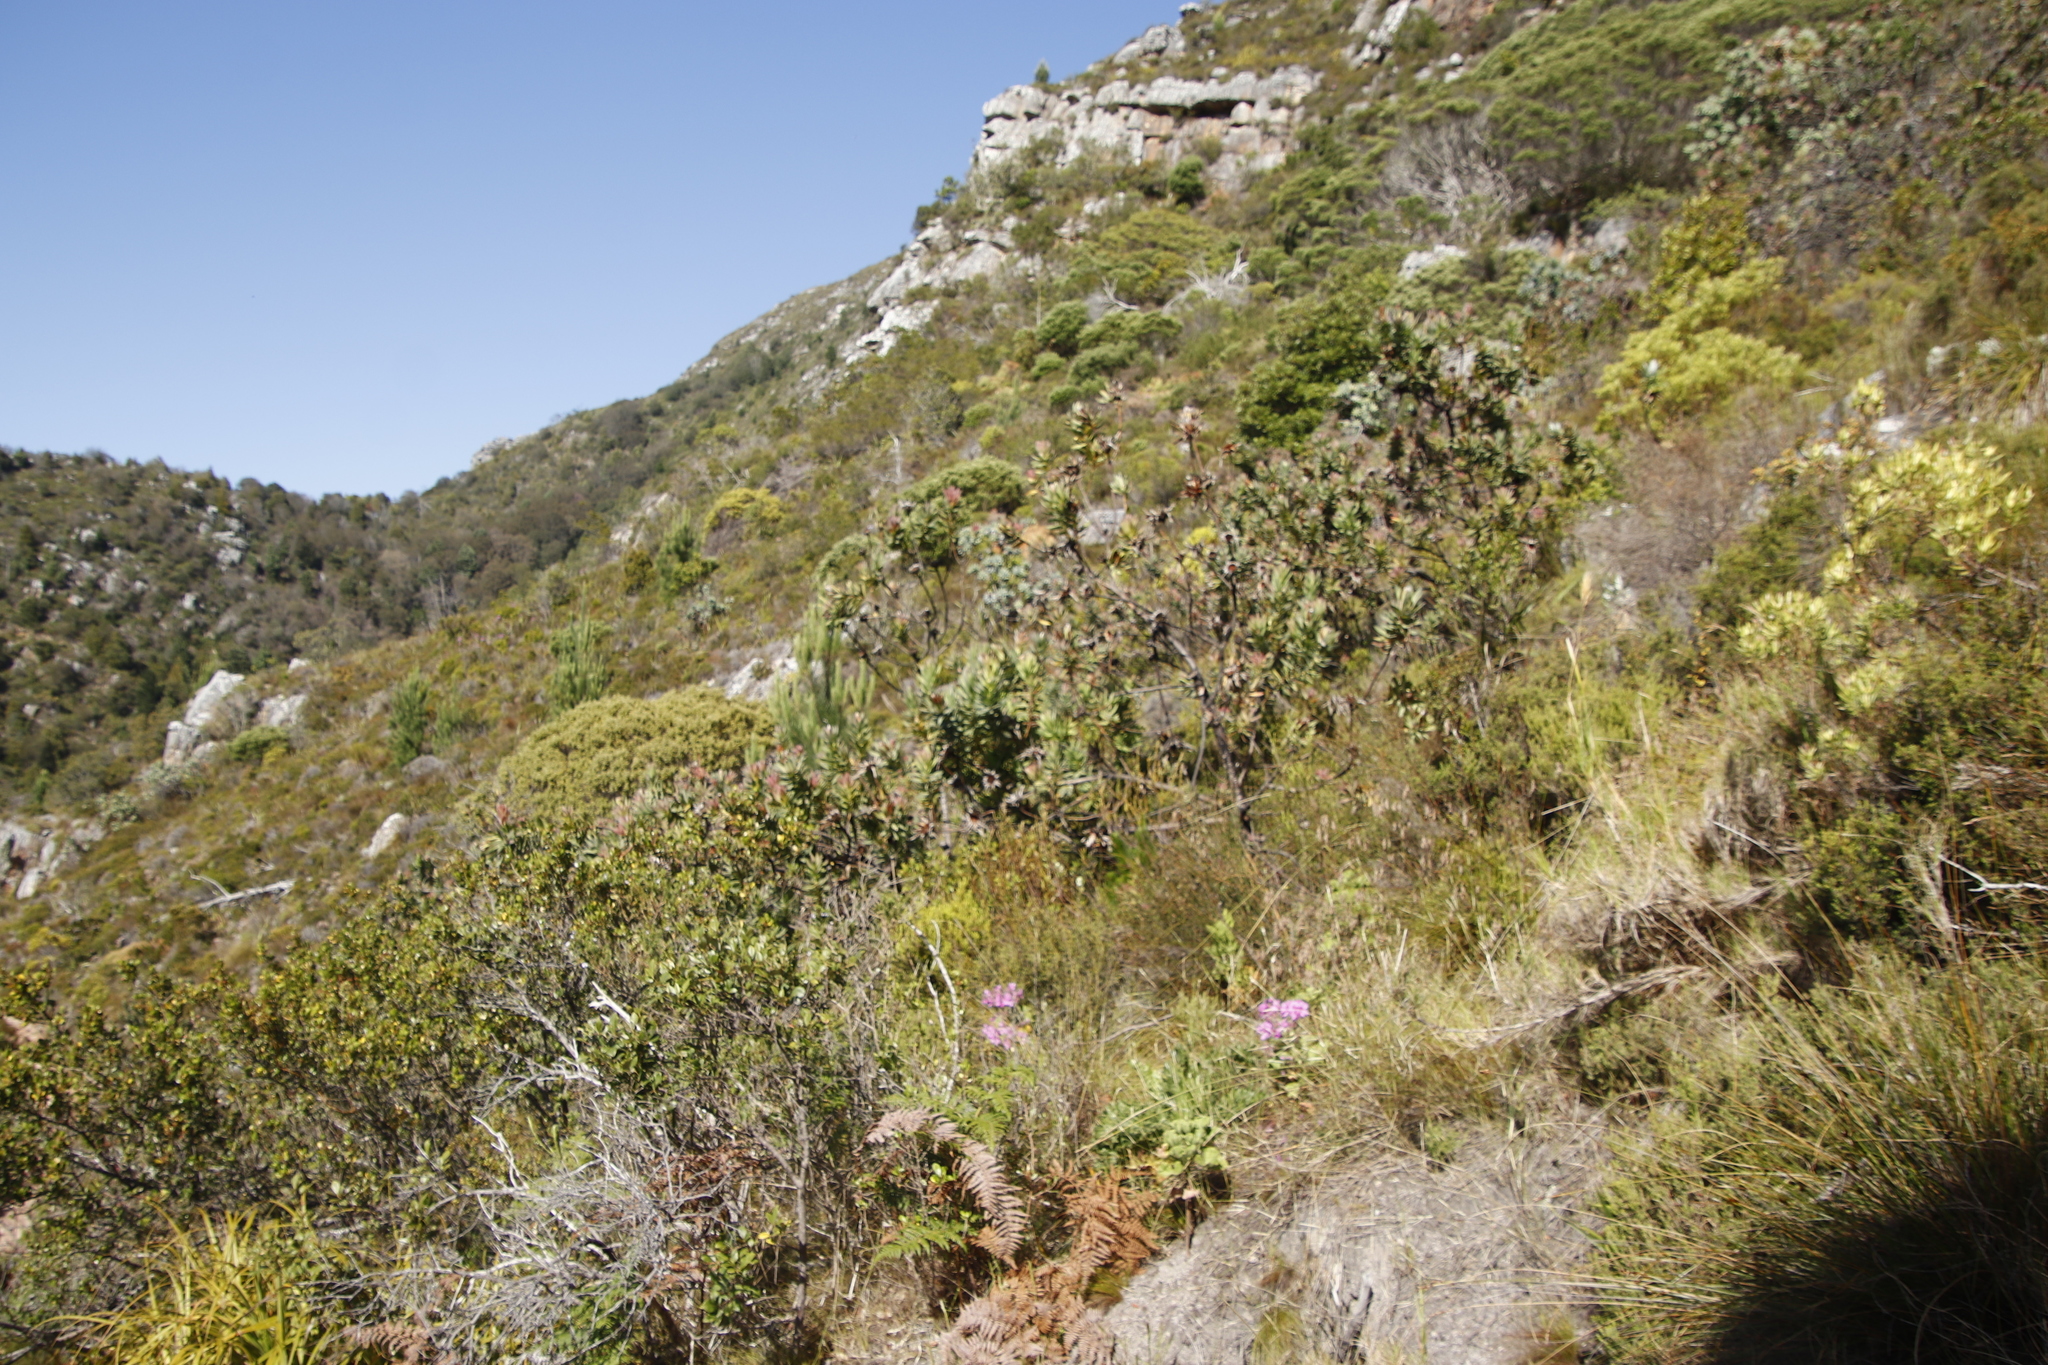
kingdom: Plantae
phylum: Tracheophyta
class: Magnoliopsida
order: Proteales
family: Proteaceae
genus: Protea
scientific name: Protea coronata
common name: Green sugarbush
